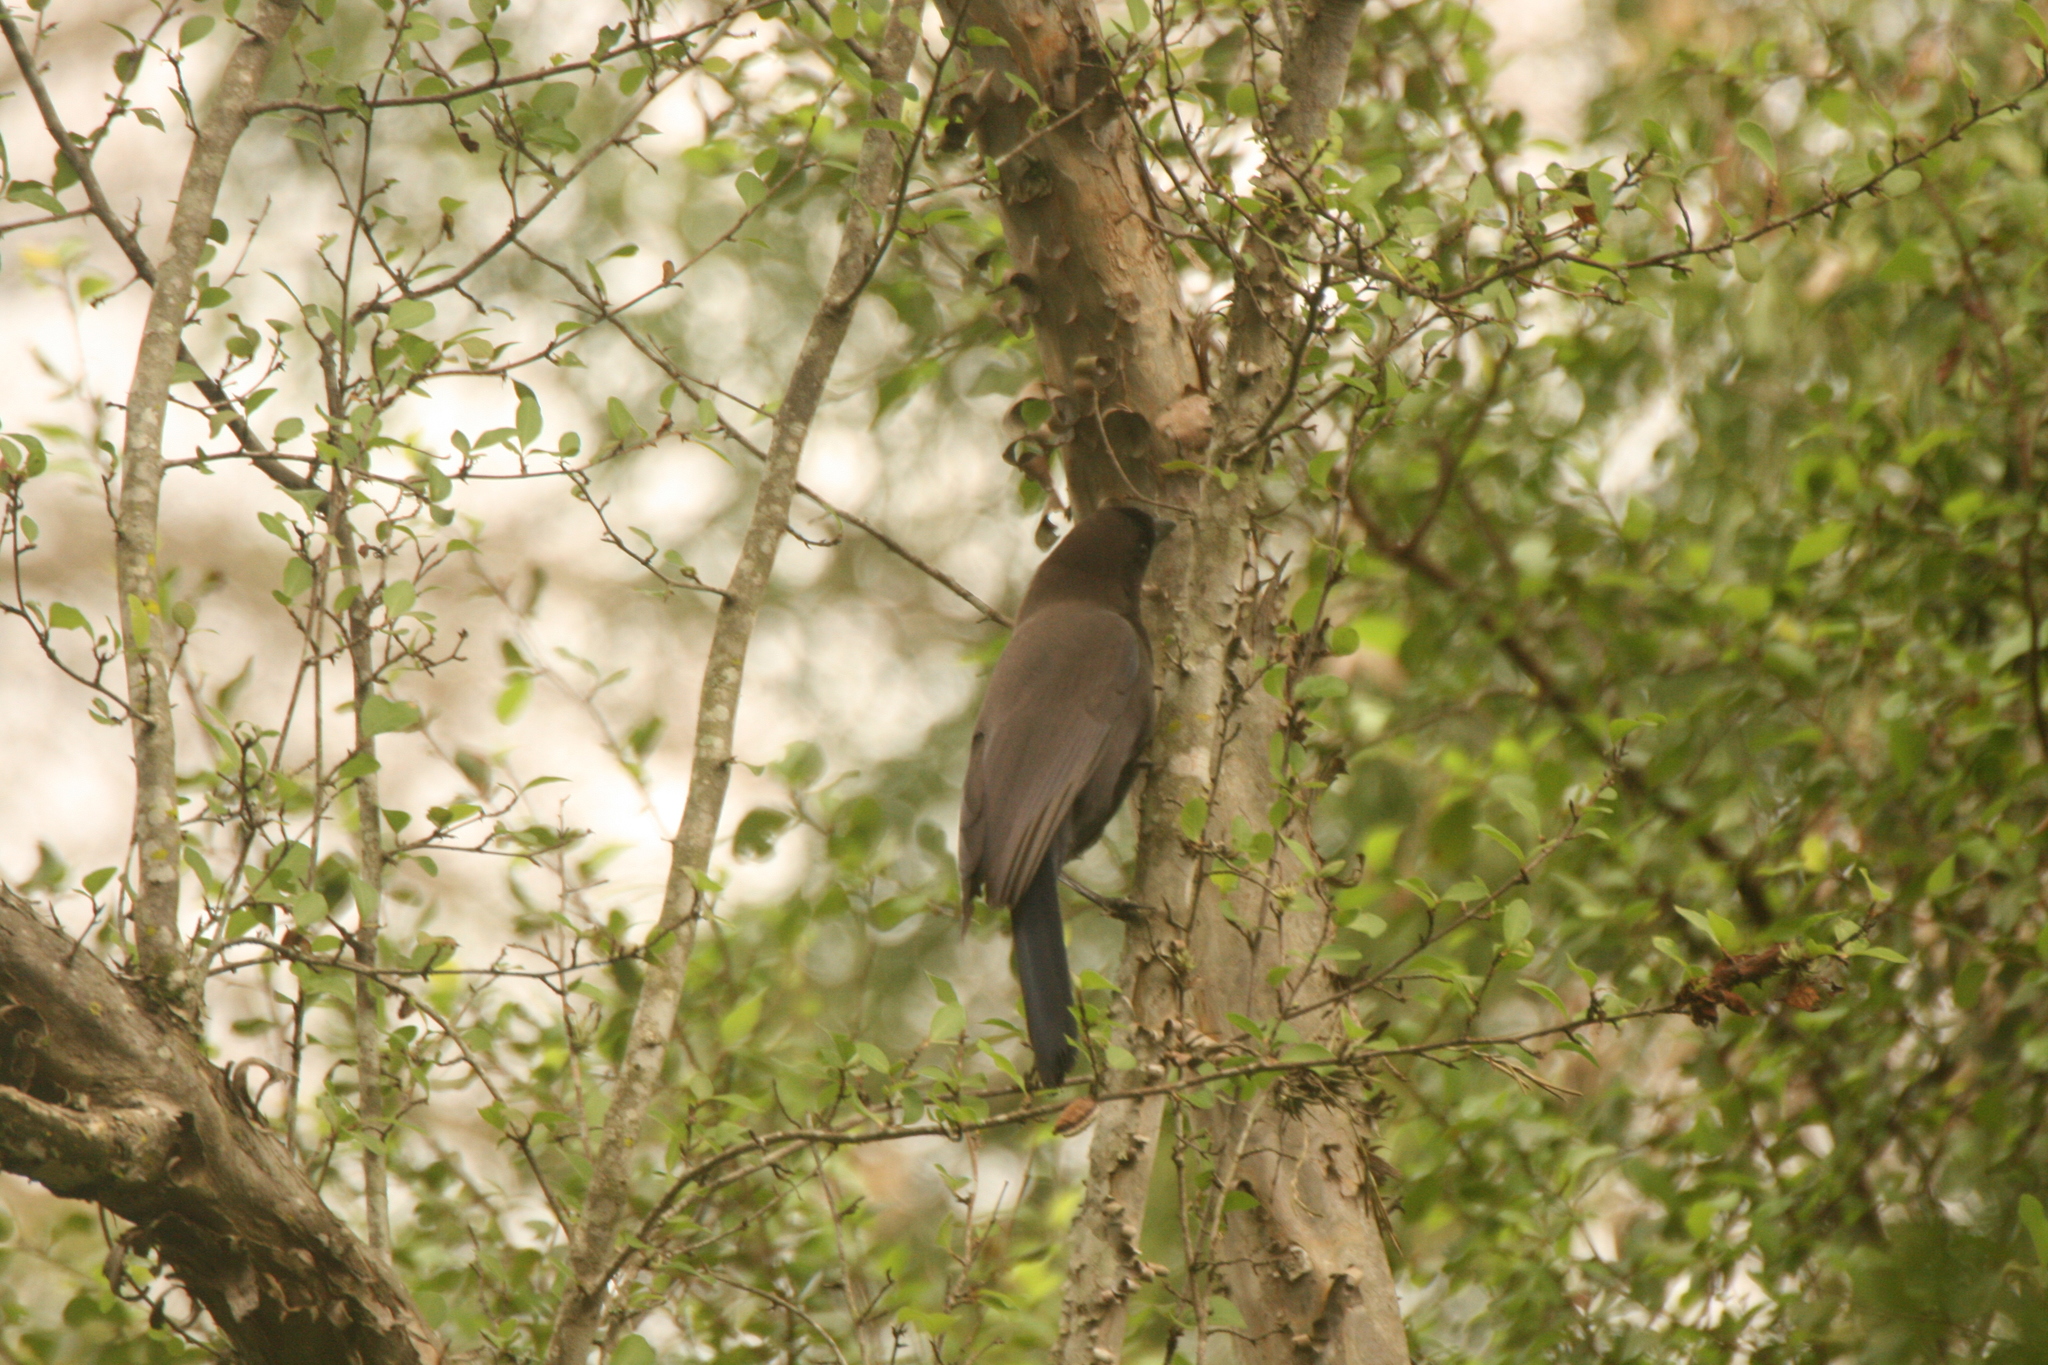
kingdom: Animalia
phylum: Chordata
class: Aves
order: Passeriformes
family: Corvidae
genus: Cyanocorax
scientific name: Cyanocorax cyanomelas
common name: Purplish jay
